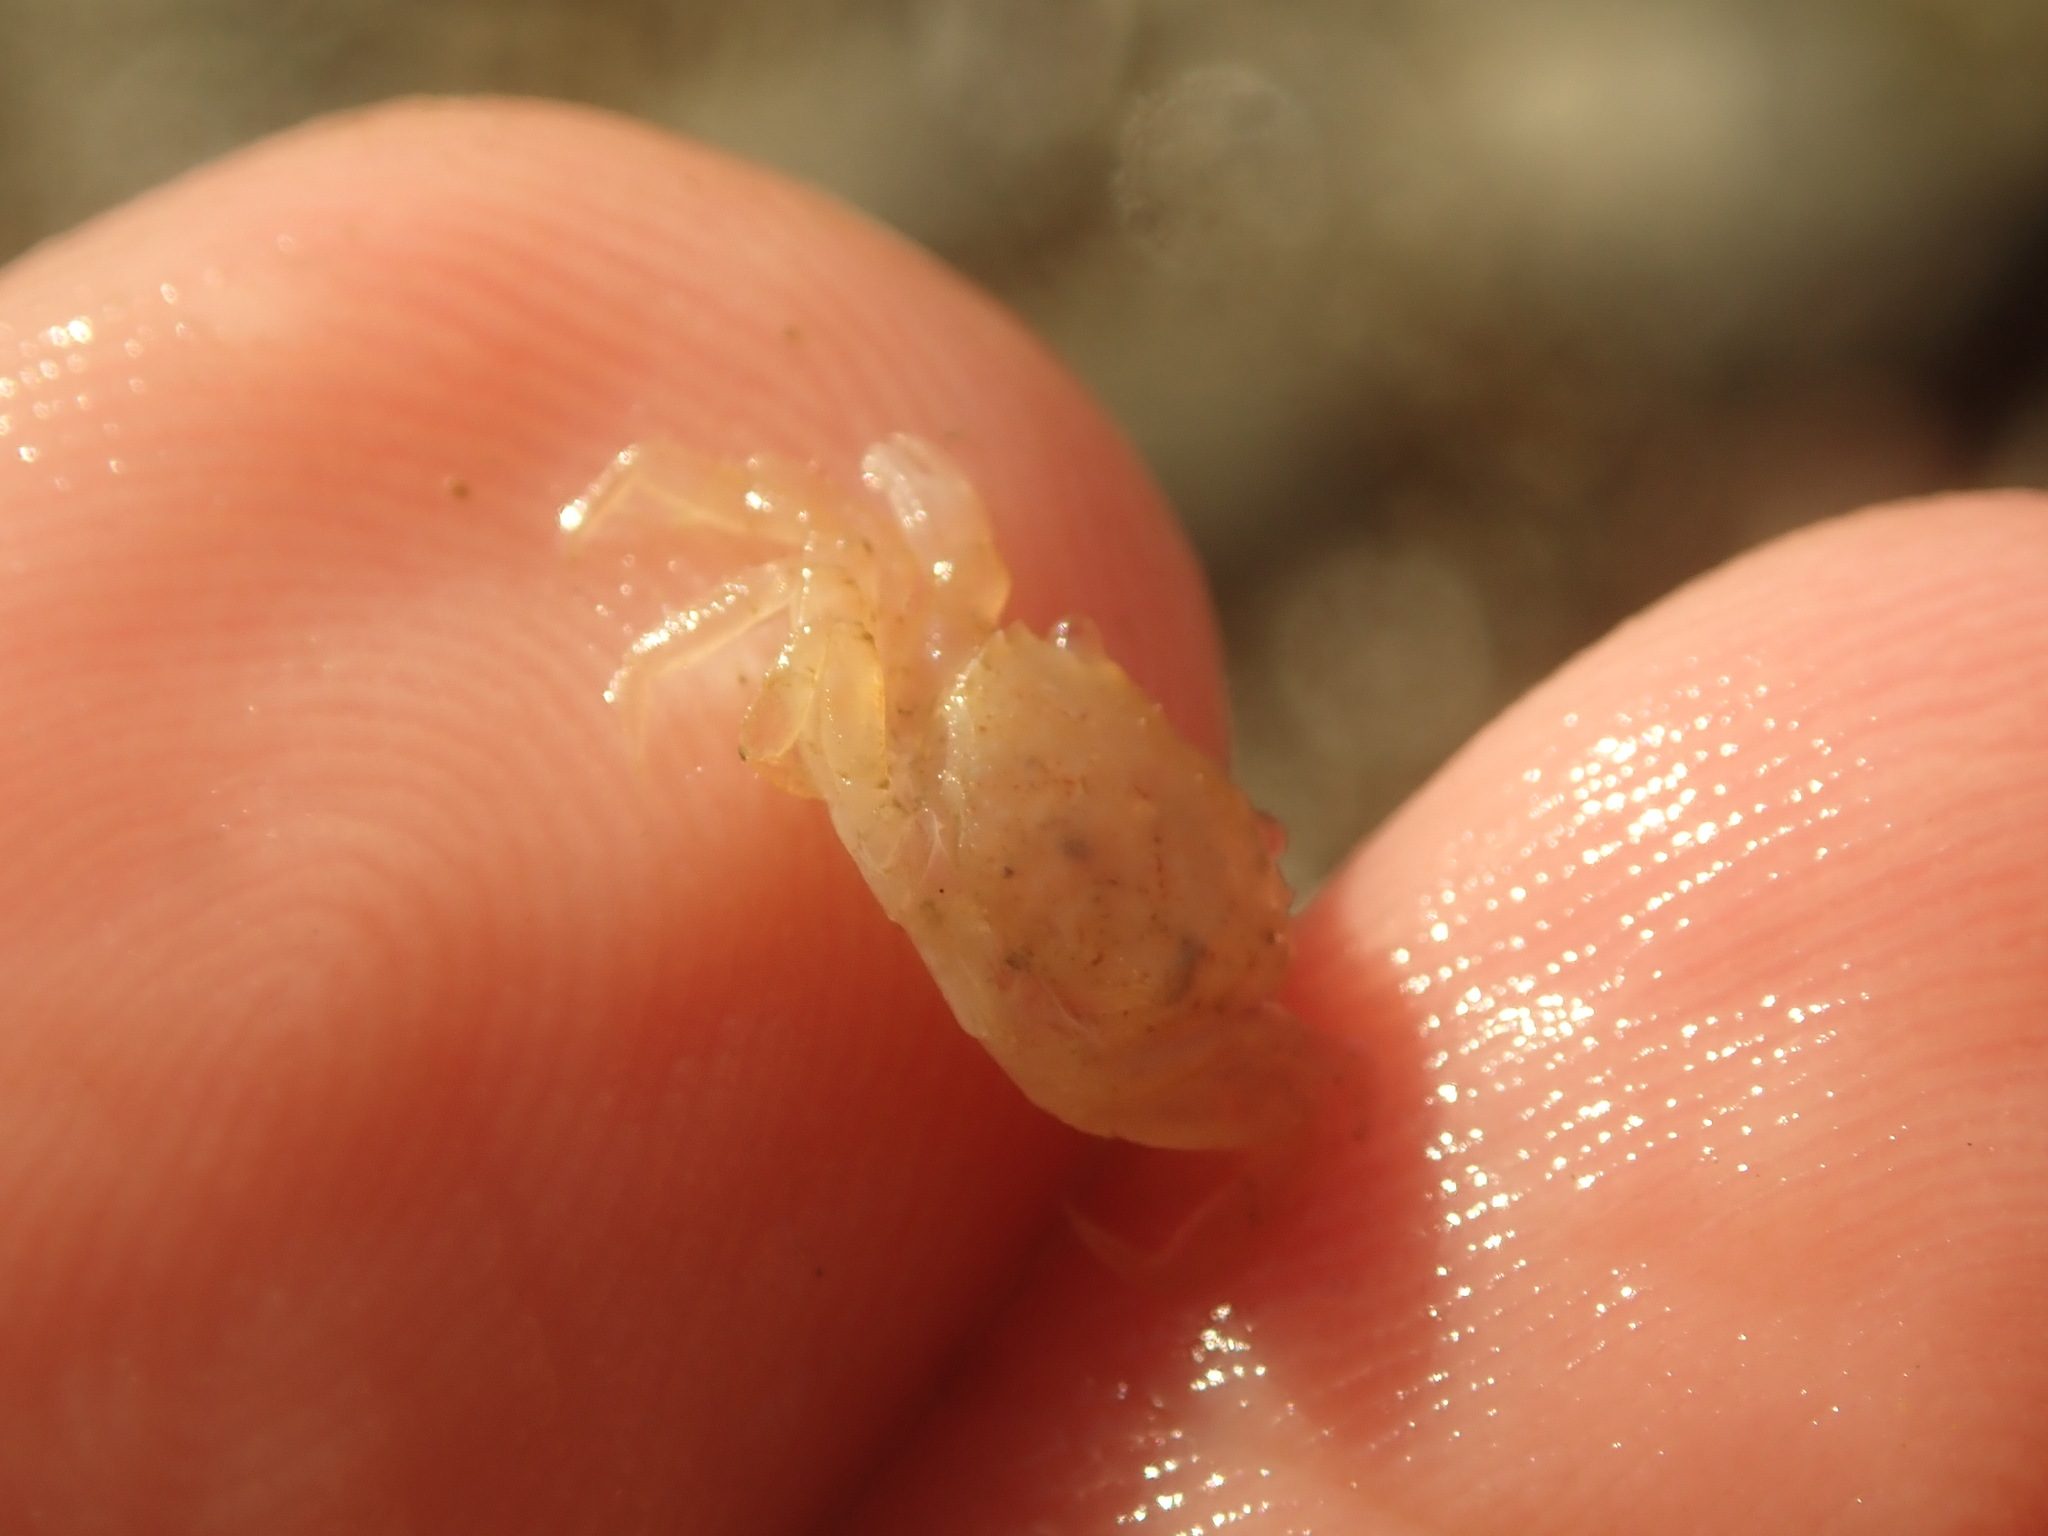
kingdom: Animalia
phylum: Arthropoda
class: Malacostraca
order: Decapoda
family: Varunidae
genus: Hemigrapsus
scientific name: Hemigrapsus oregonensis
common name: Yellow shore crab
